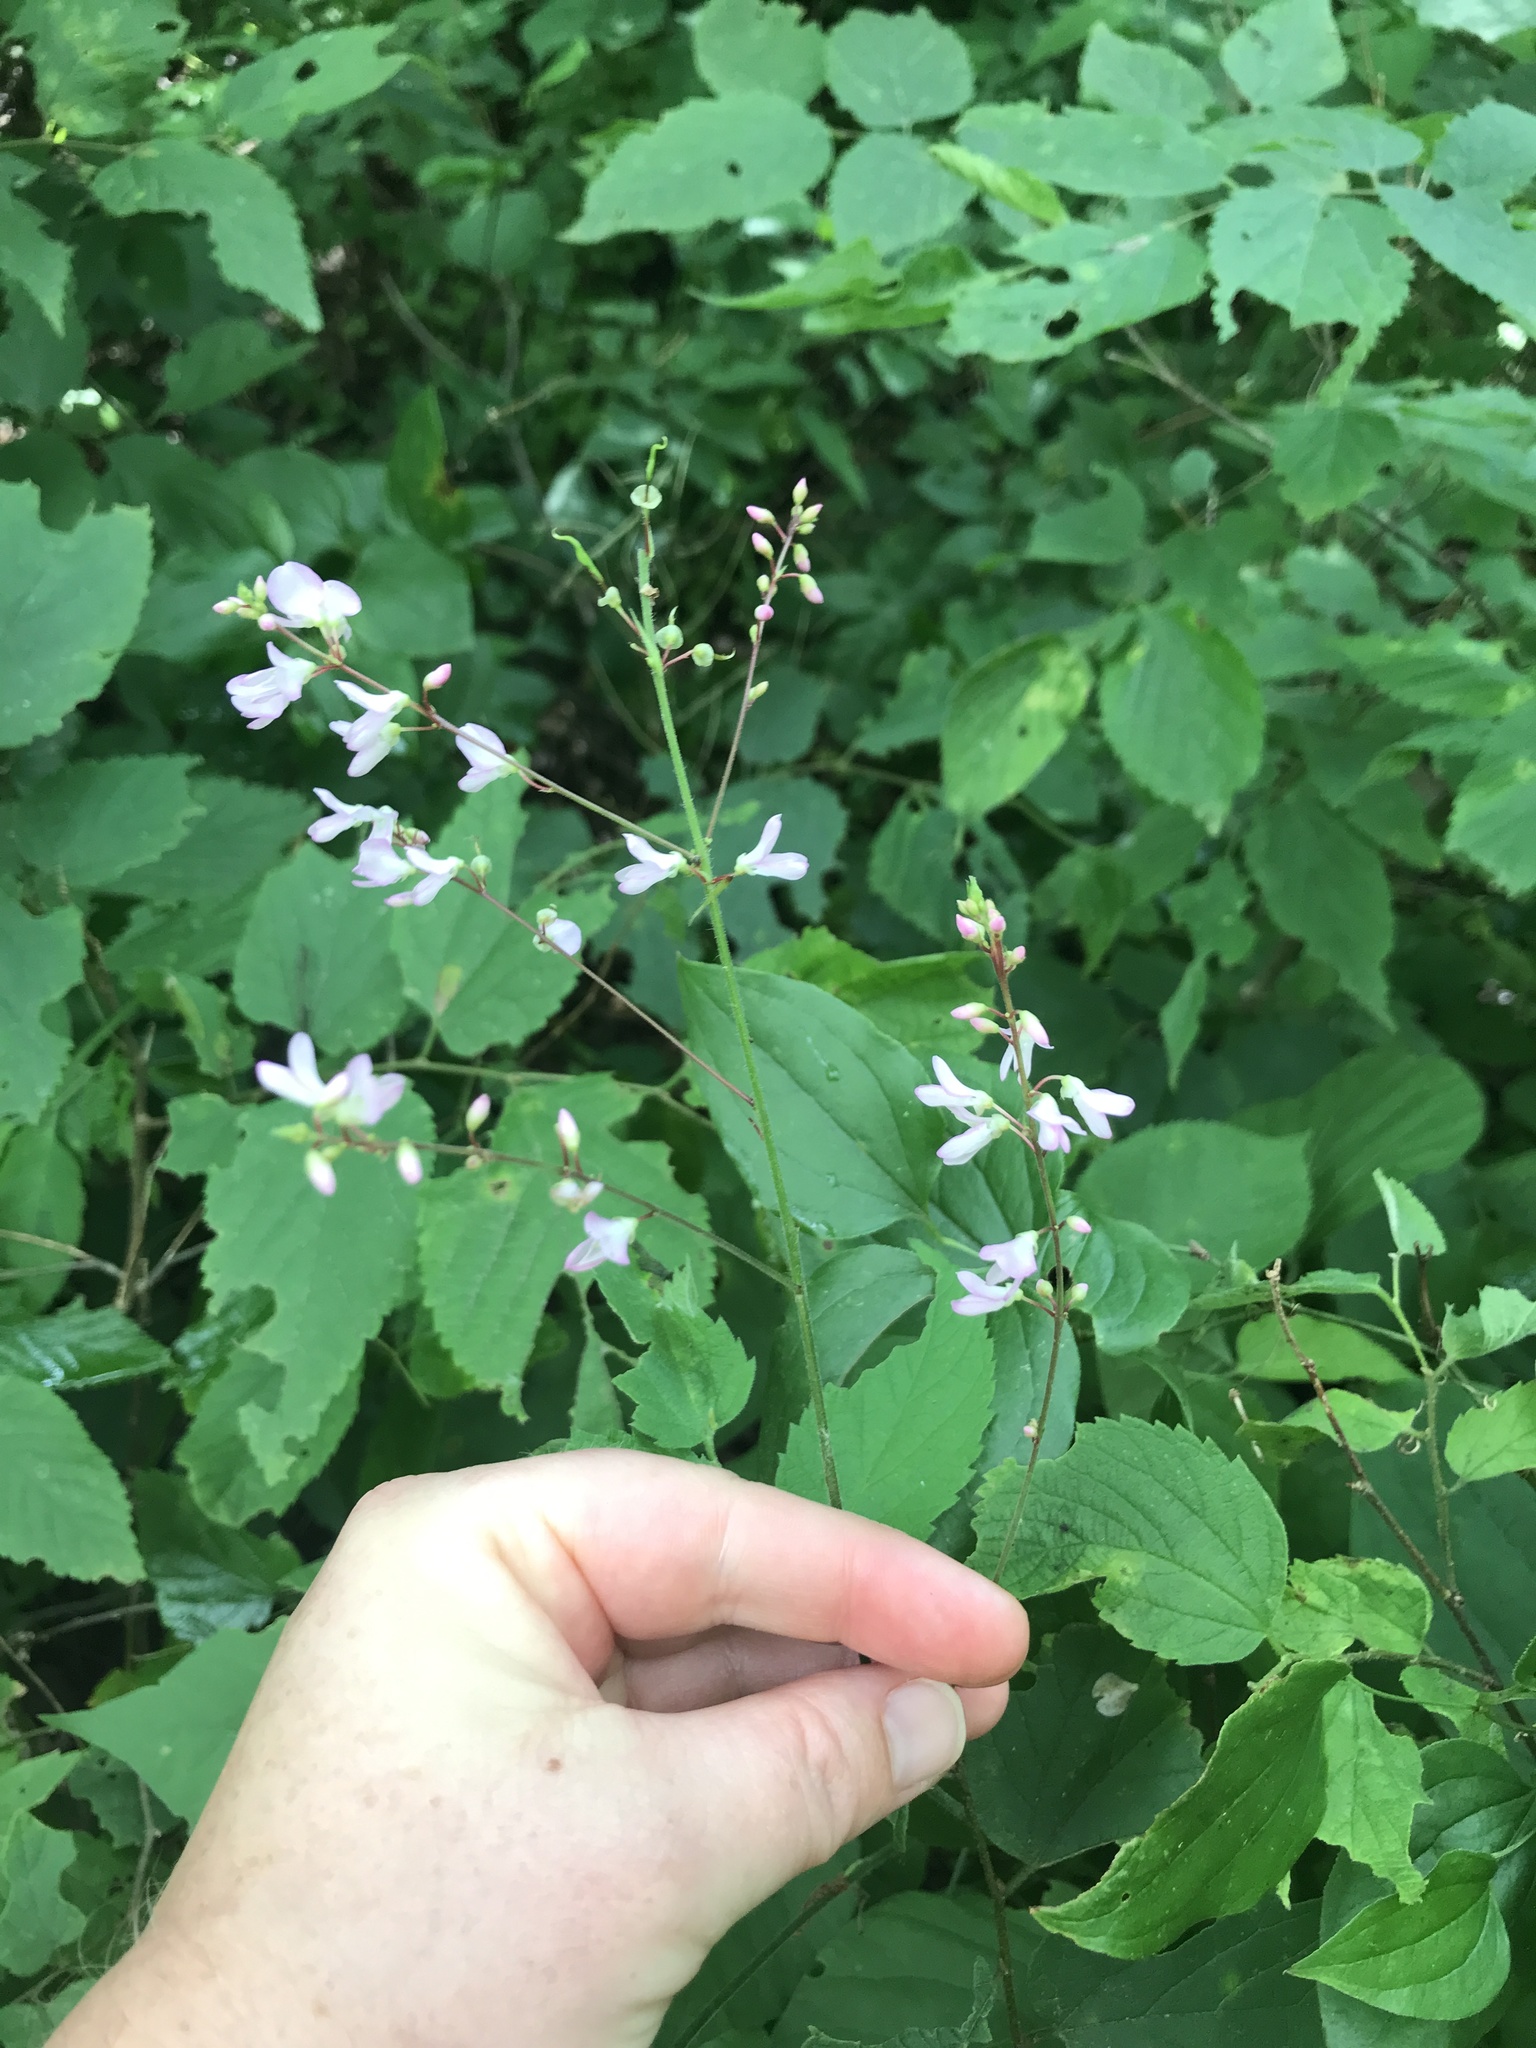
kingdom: Plantae
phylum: Tracheophyta
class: Magnoliopsida
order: Fabales
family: Fabaceae
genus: Hylodesmum
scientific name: Hylodesmum glutinosum
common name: Clustered-leaved tick-trefoil
